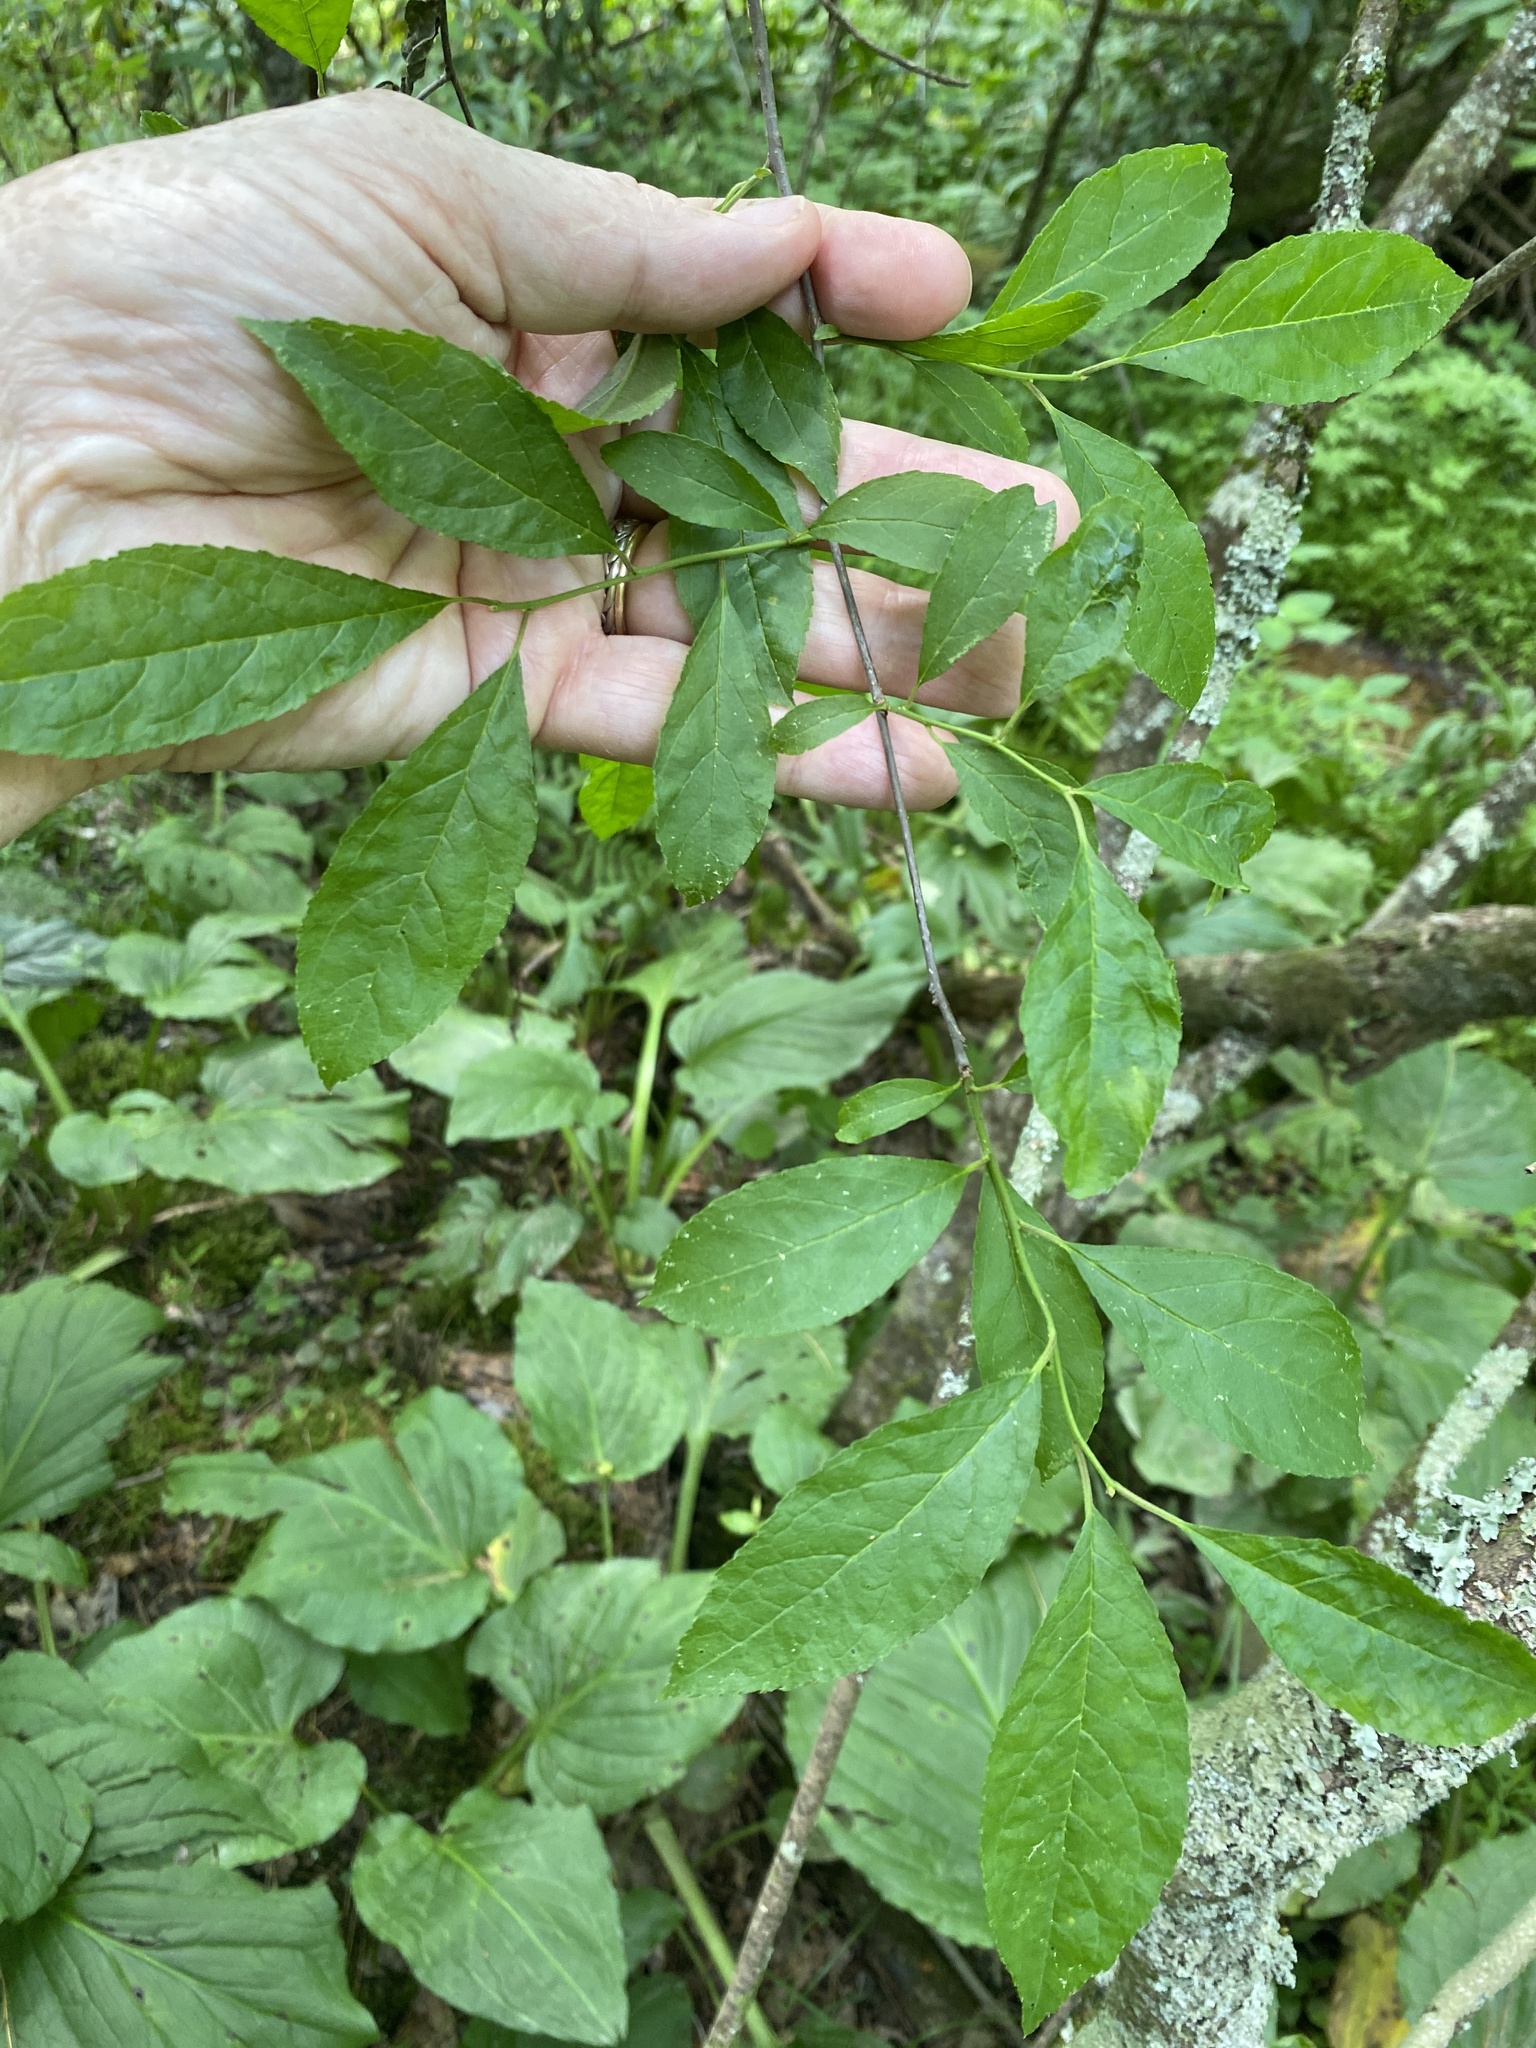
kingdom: Plantae
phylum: Tracheophyta
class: Magnoliopsida
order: Aquifoliales
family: Aquifoliaceae
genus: Ilex
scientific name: Ilex verticillata
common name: Virginia winterberry
